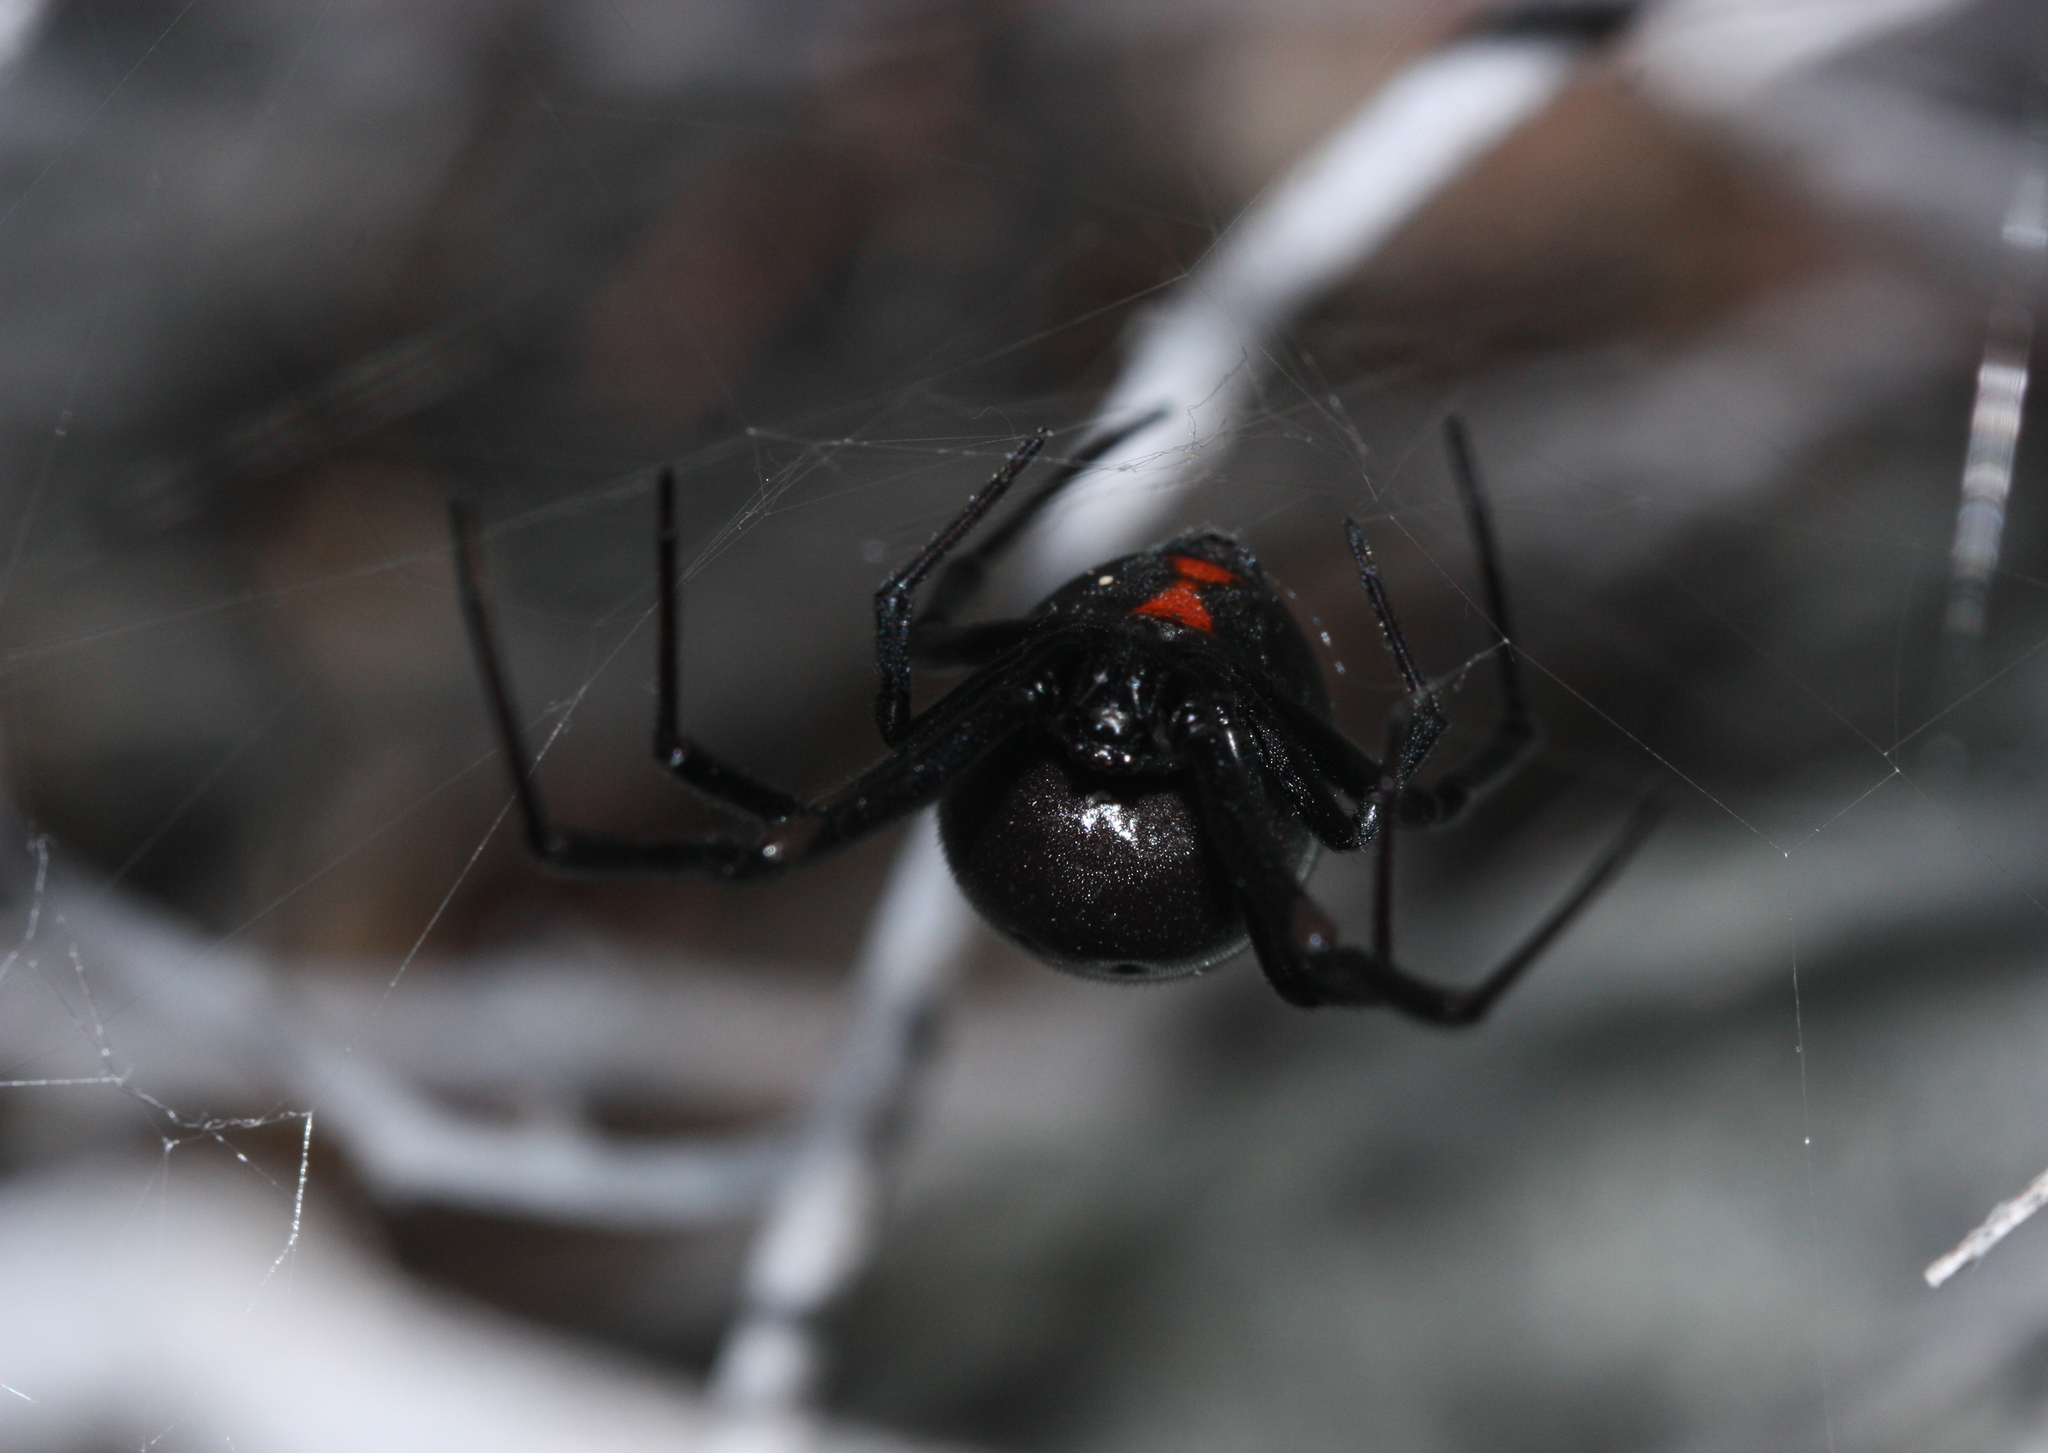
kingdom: Animalia
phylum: Arthropoda
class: Arachnida
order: Araneae
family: Theridiidae
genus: Latrodectus
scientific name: Latrodectus hesperus
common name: Western black widow
